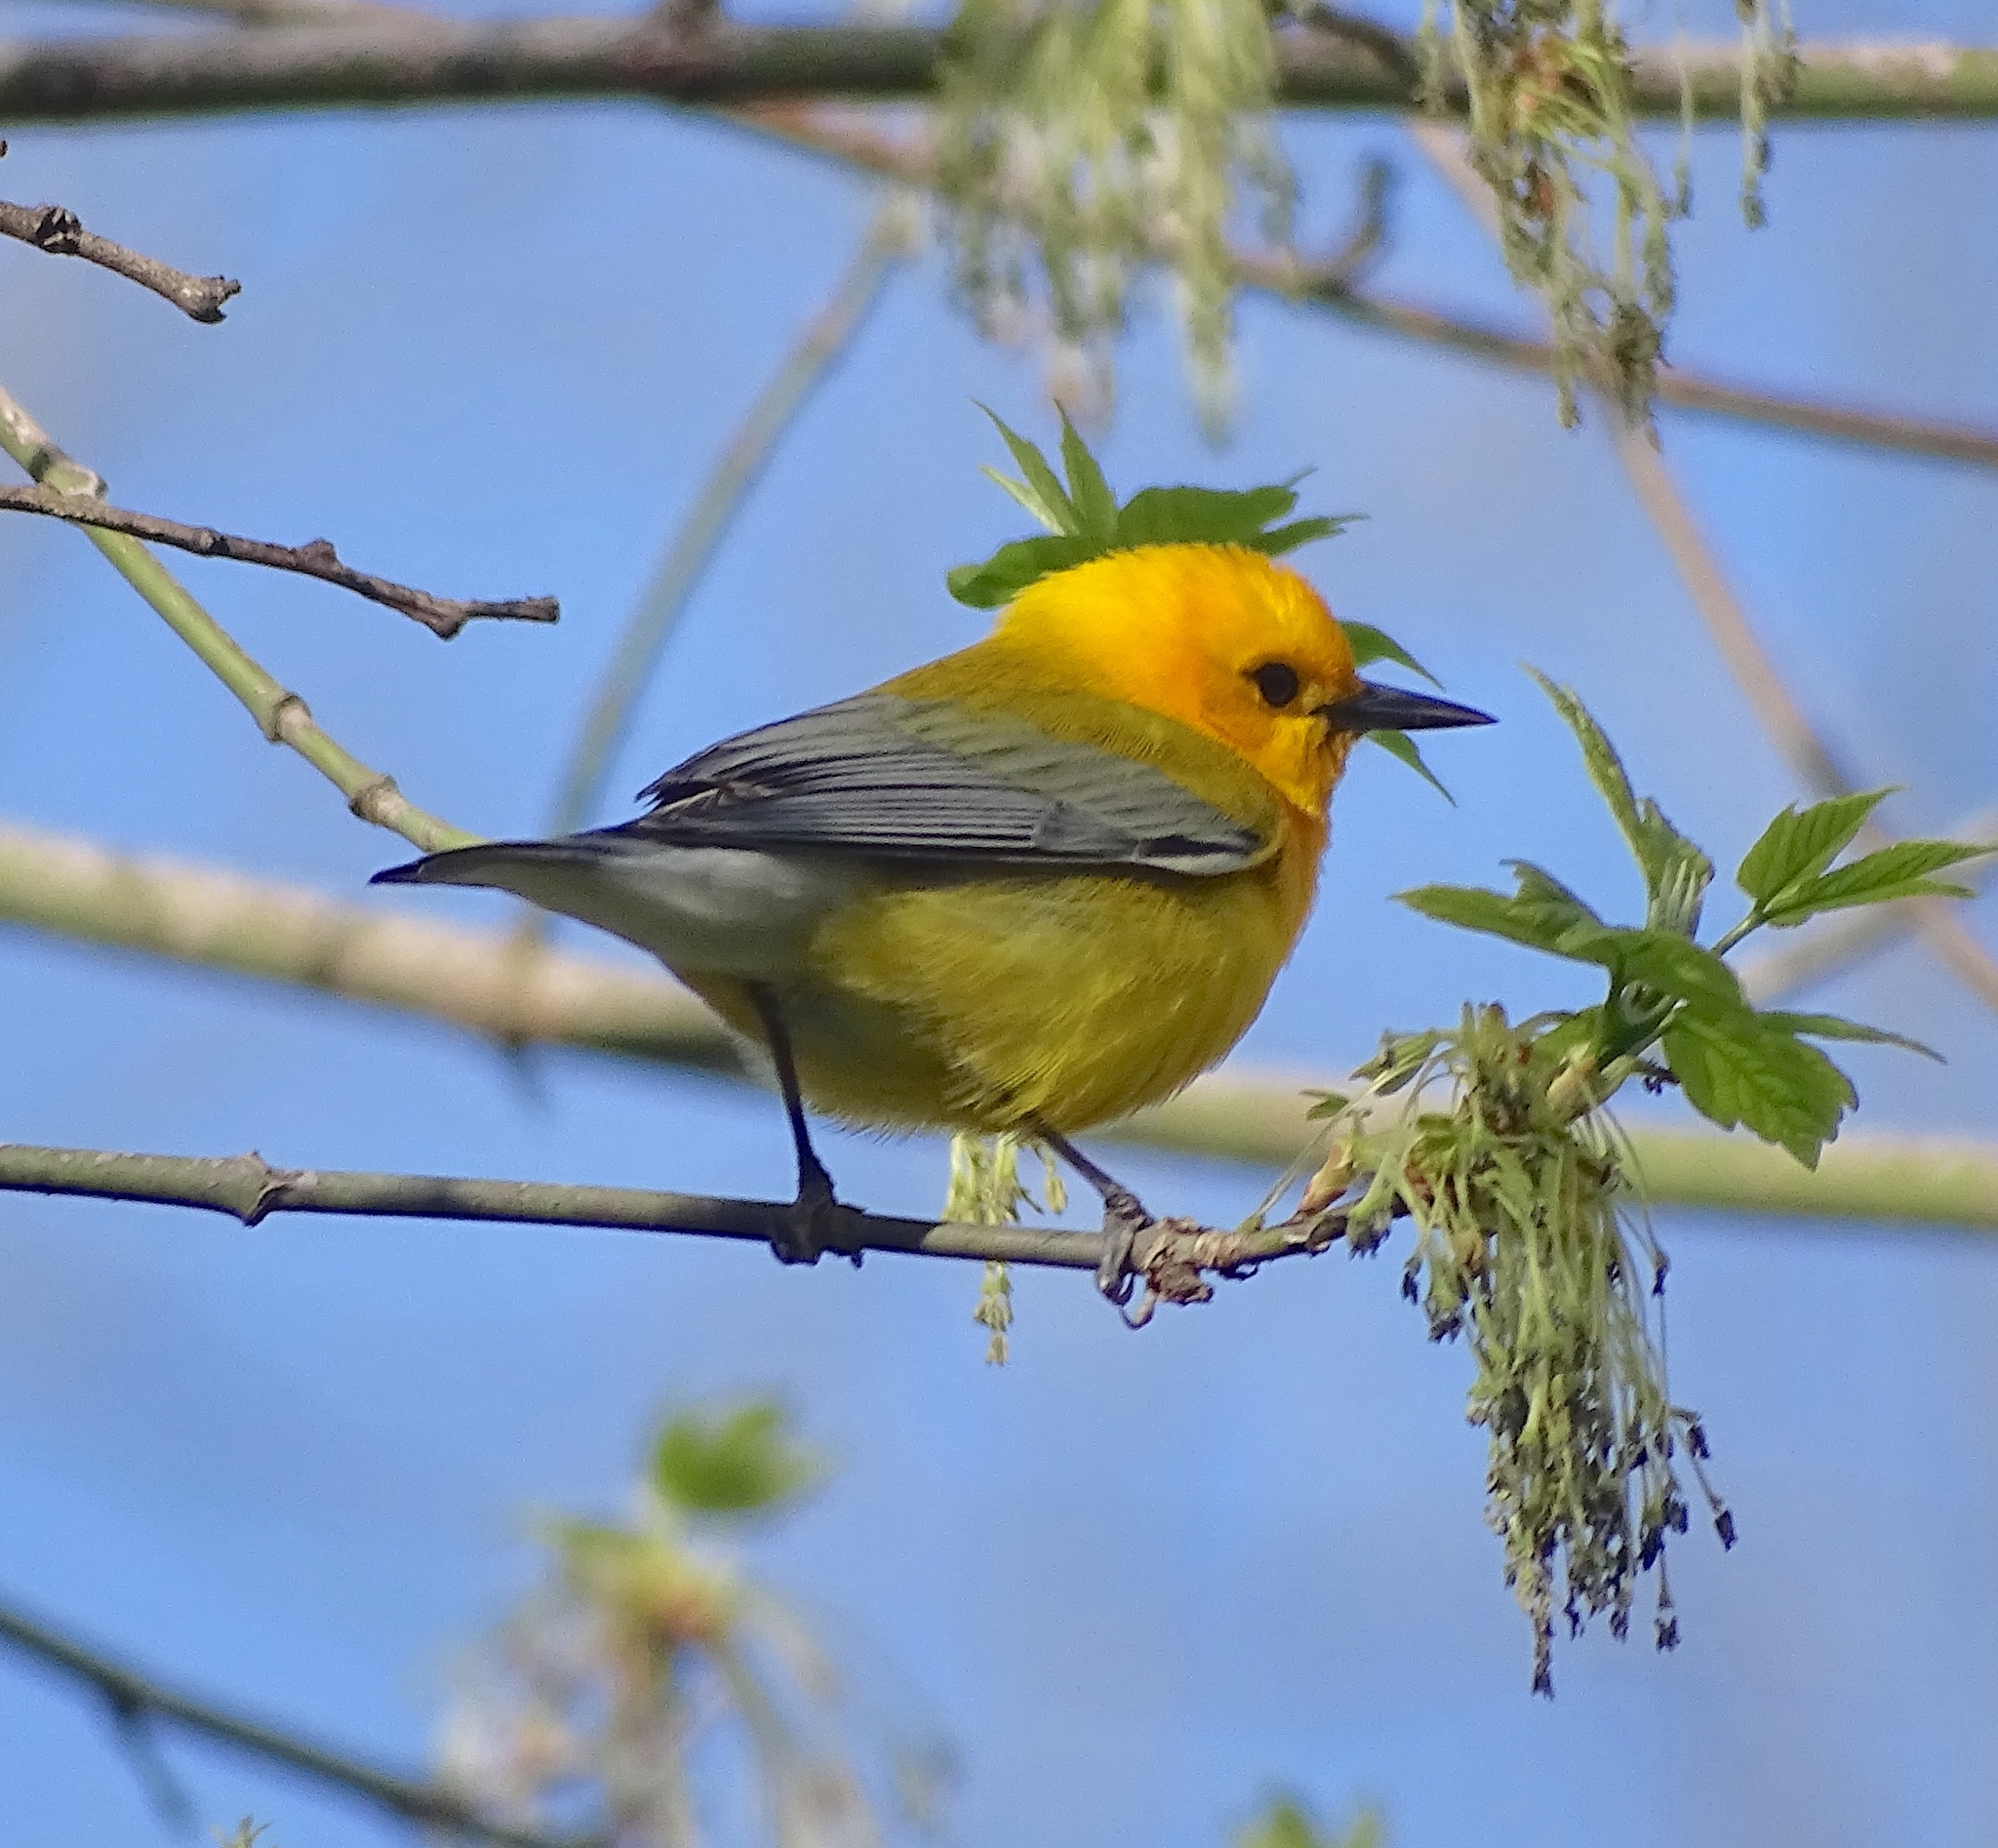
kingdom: Animalia
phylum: Chordata
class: Aves
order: Passeriformes
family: Parulidae
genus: Protonotaria
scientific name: Protonotaria citrea
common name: Prothonotary warbler
